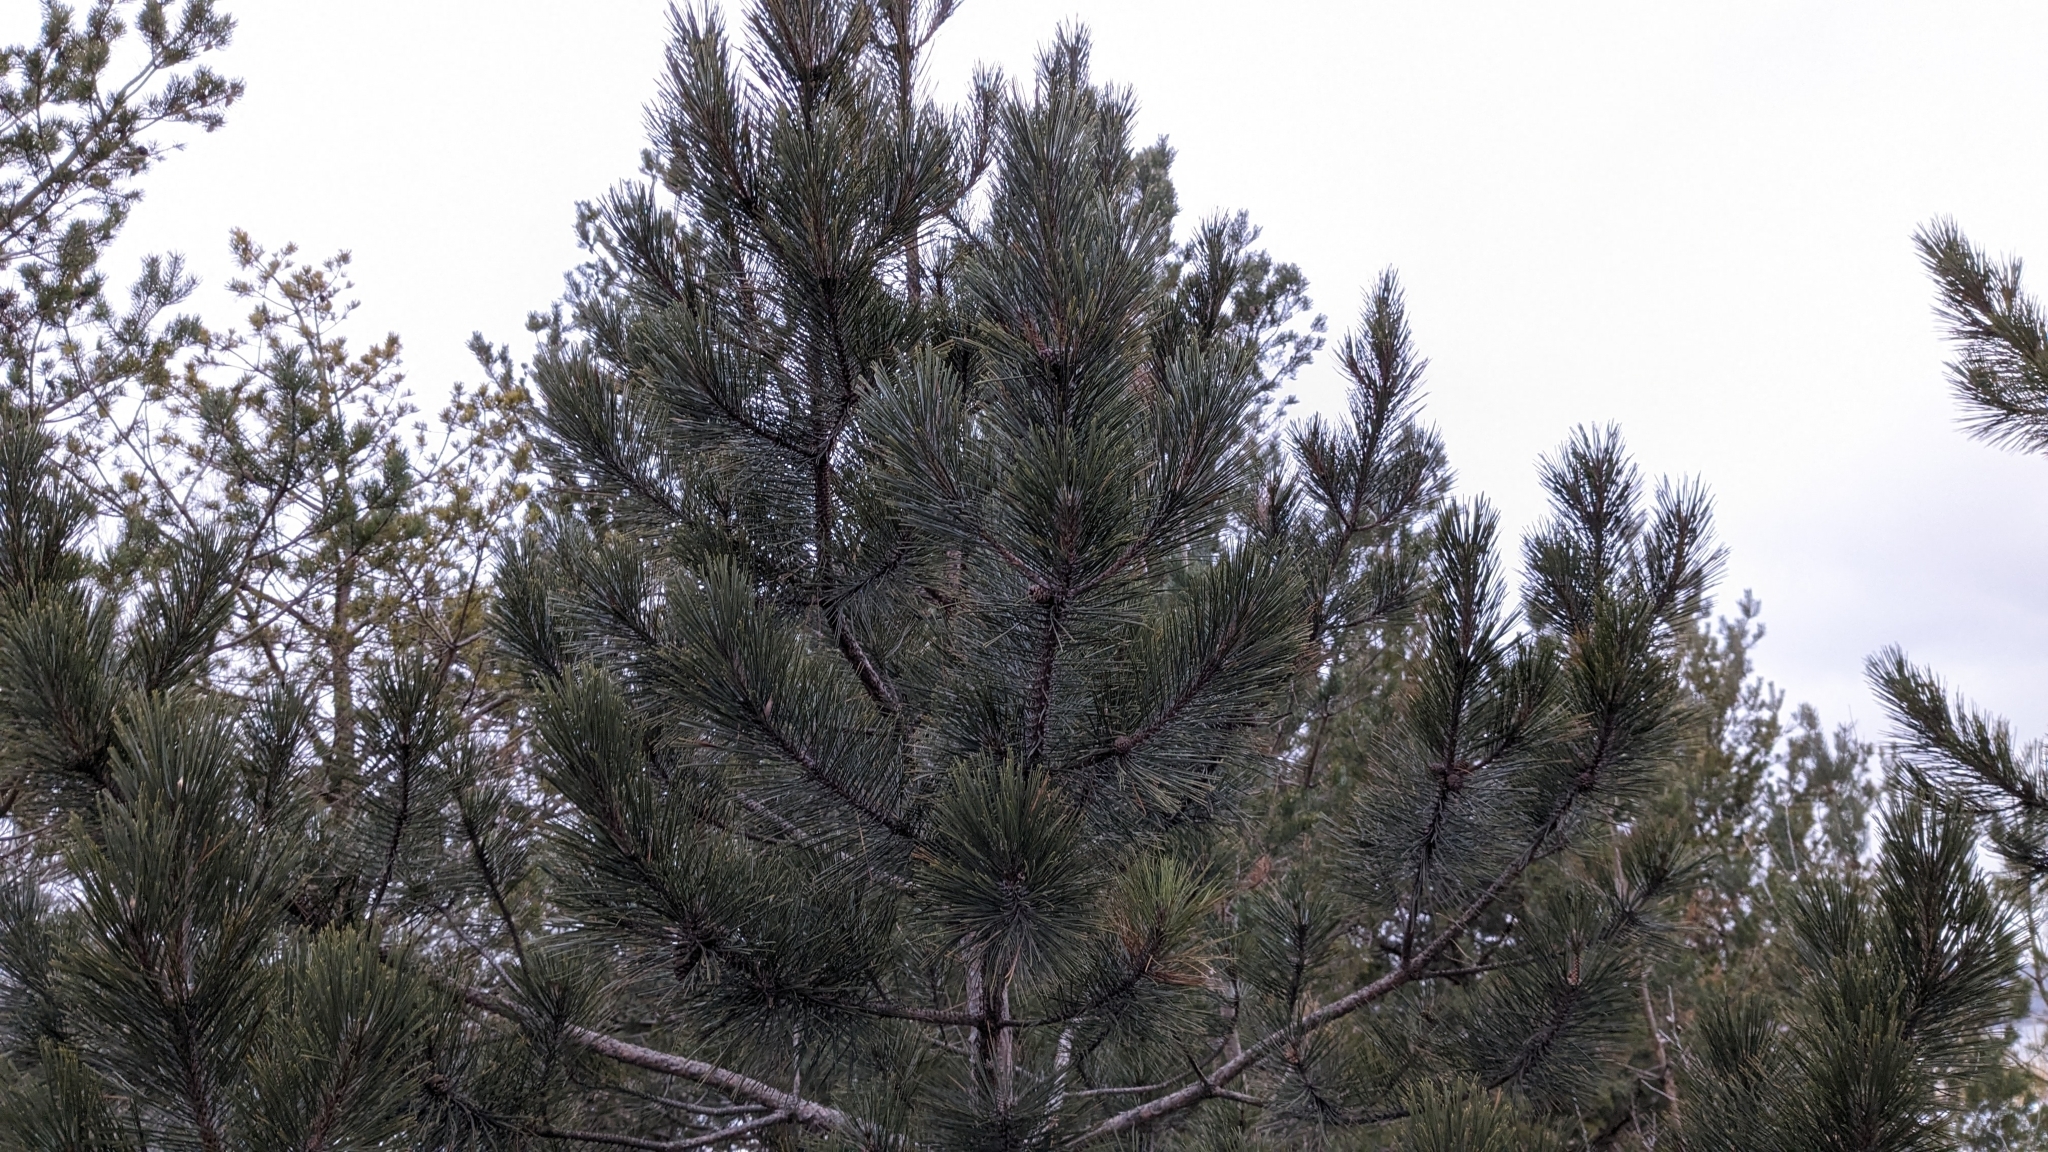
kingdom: Plantae
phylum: Tracheophyta
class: Pinopsida
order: Pinales
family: Pinaceae
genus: Pinus
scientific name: Pinus resinosa
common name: Norway pine
